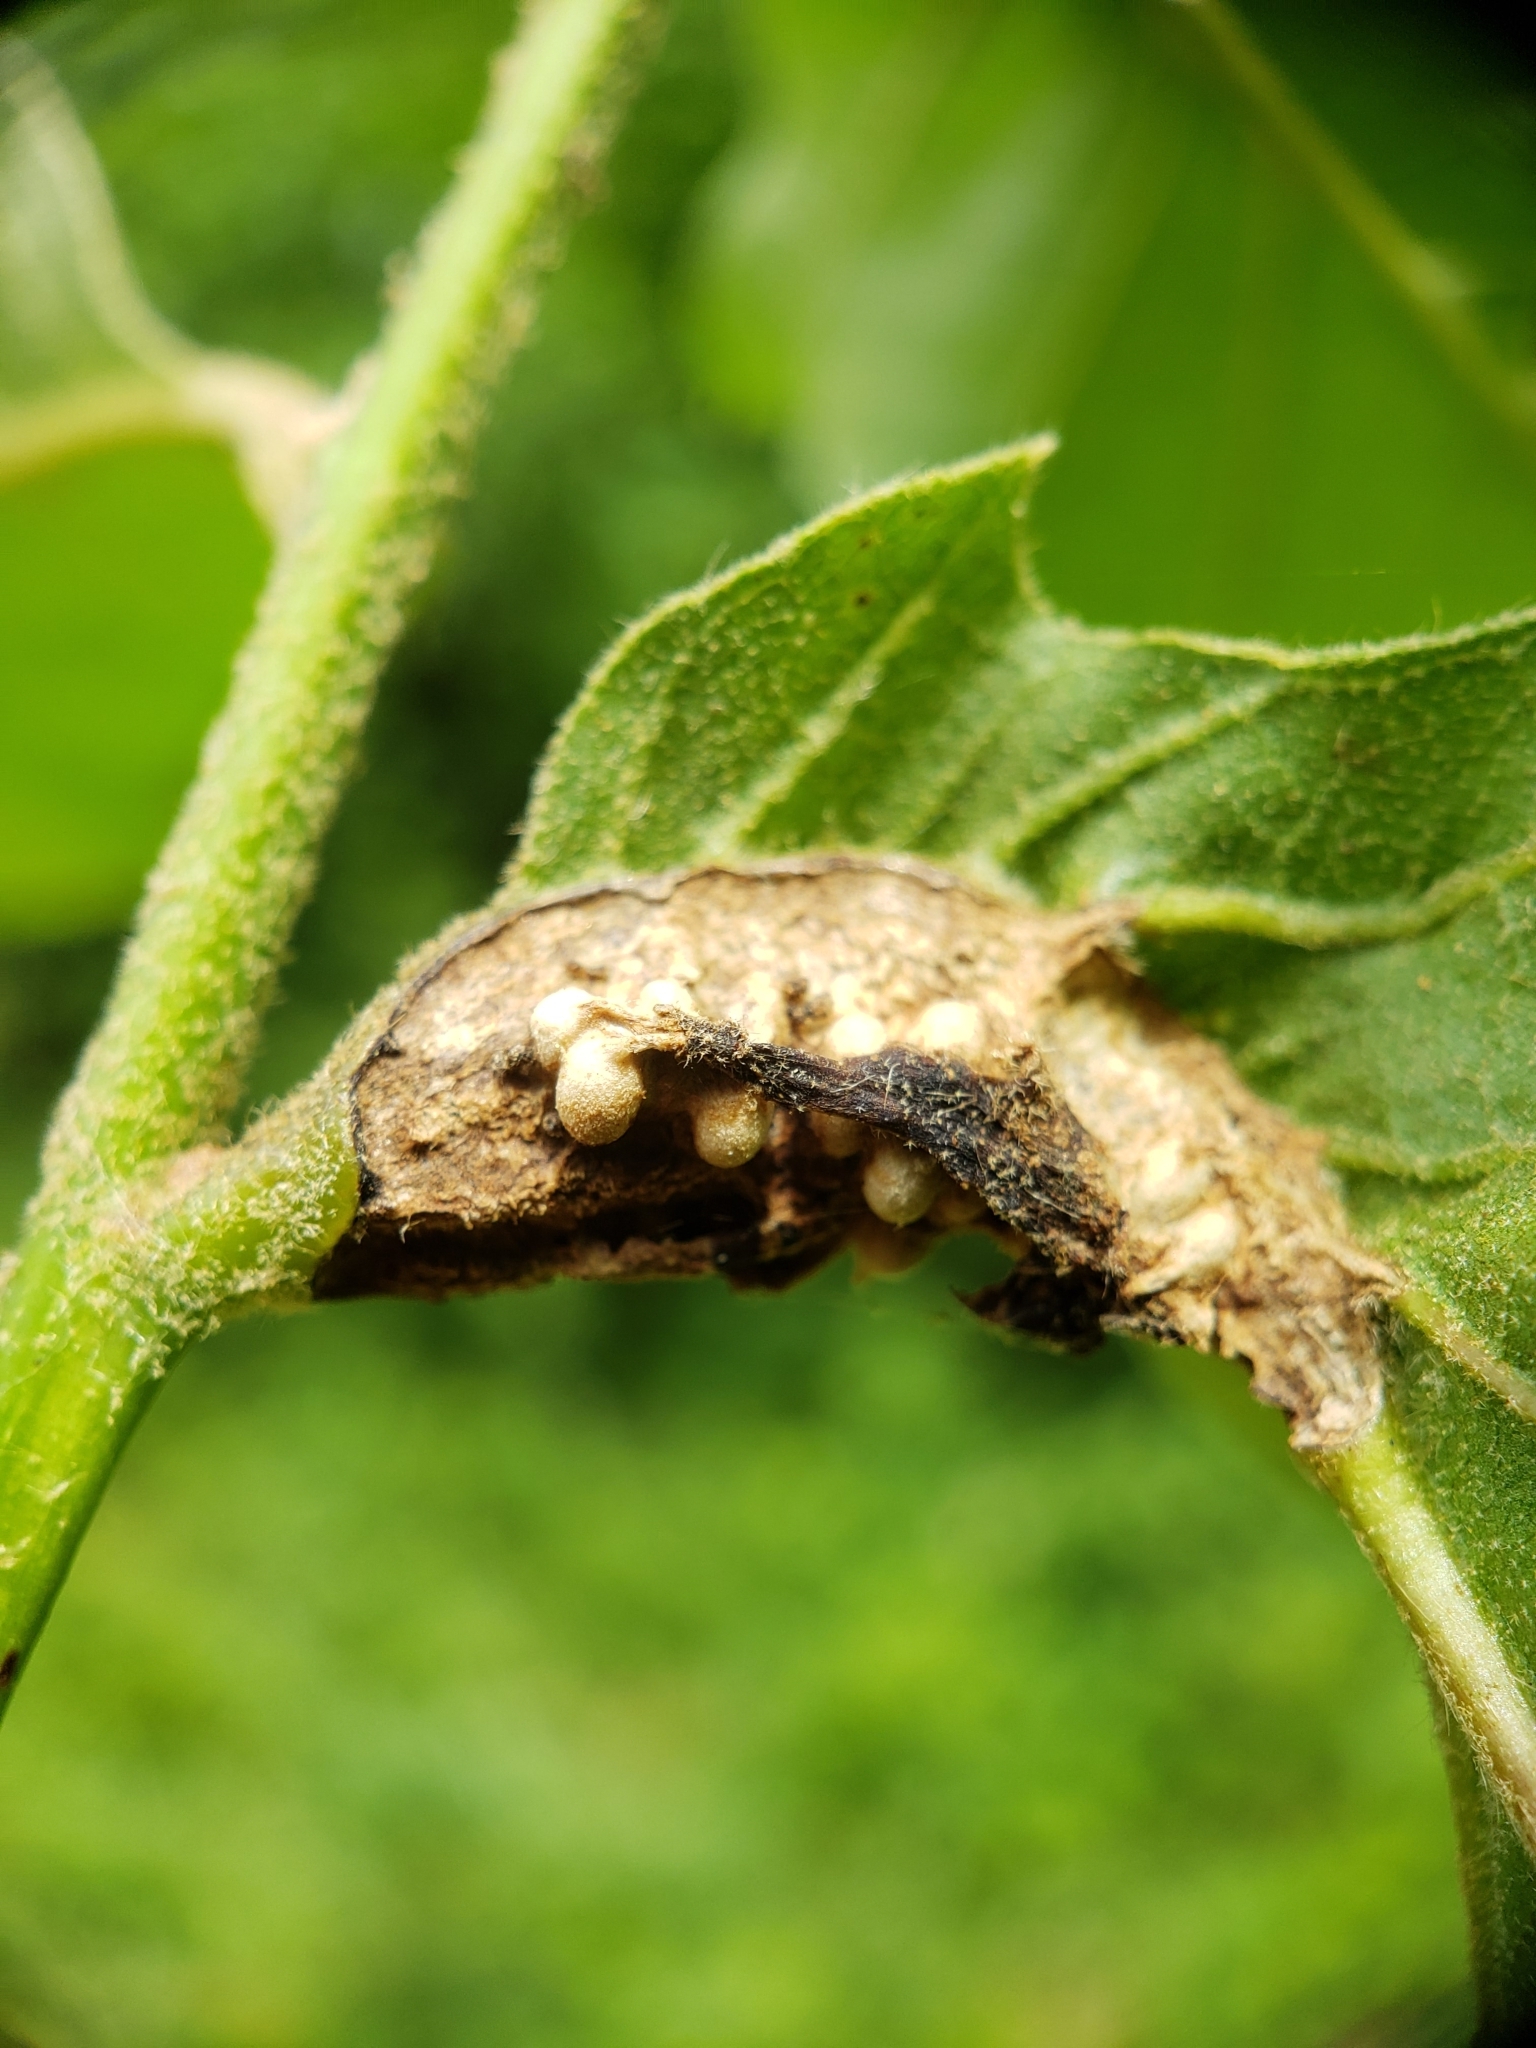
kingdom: Animalia
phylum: Arthropoda
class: Insecta
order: Hymenoptera
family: Cynipidae
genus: Melikaiella
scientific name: Melikaiella tumifica
